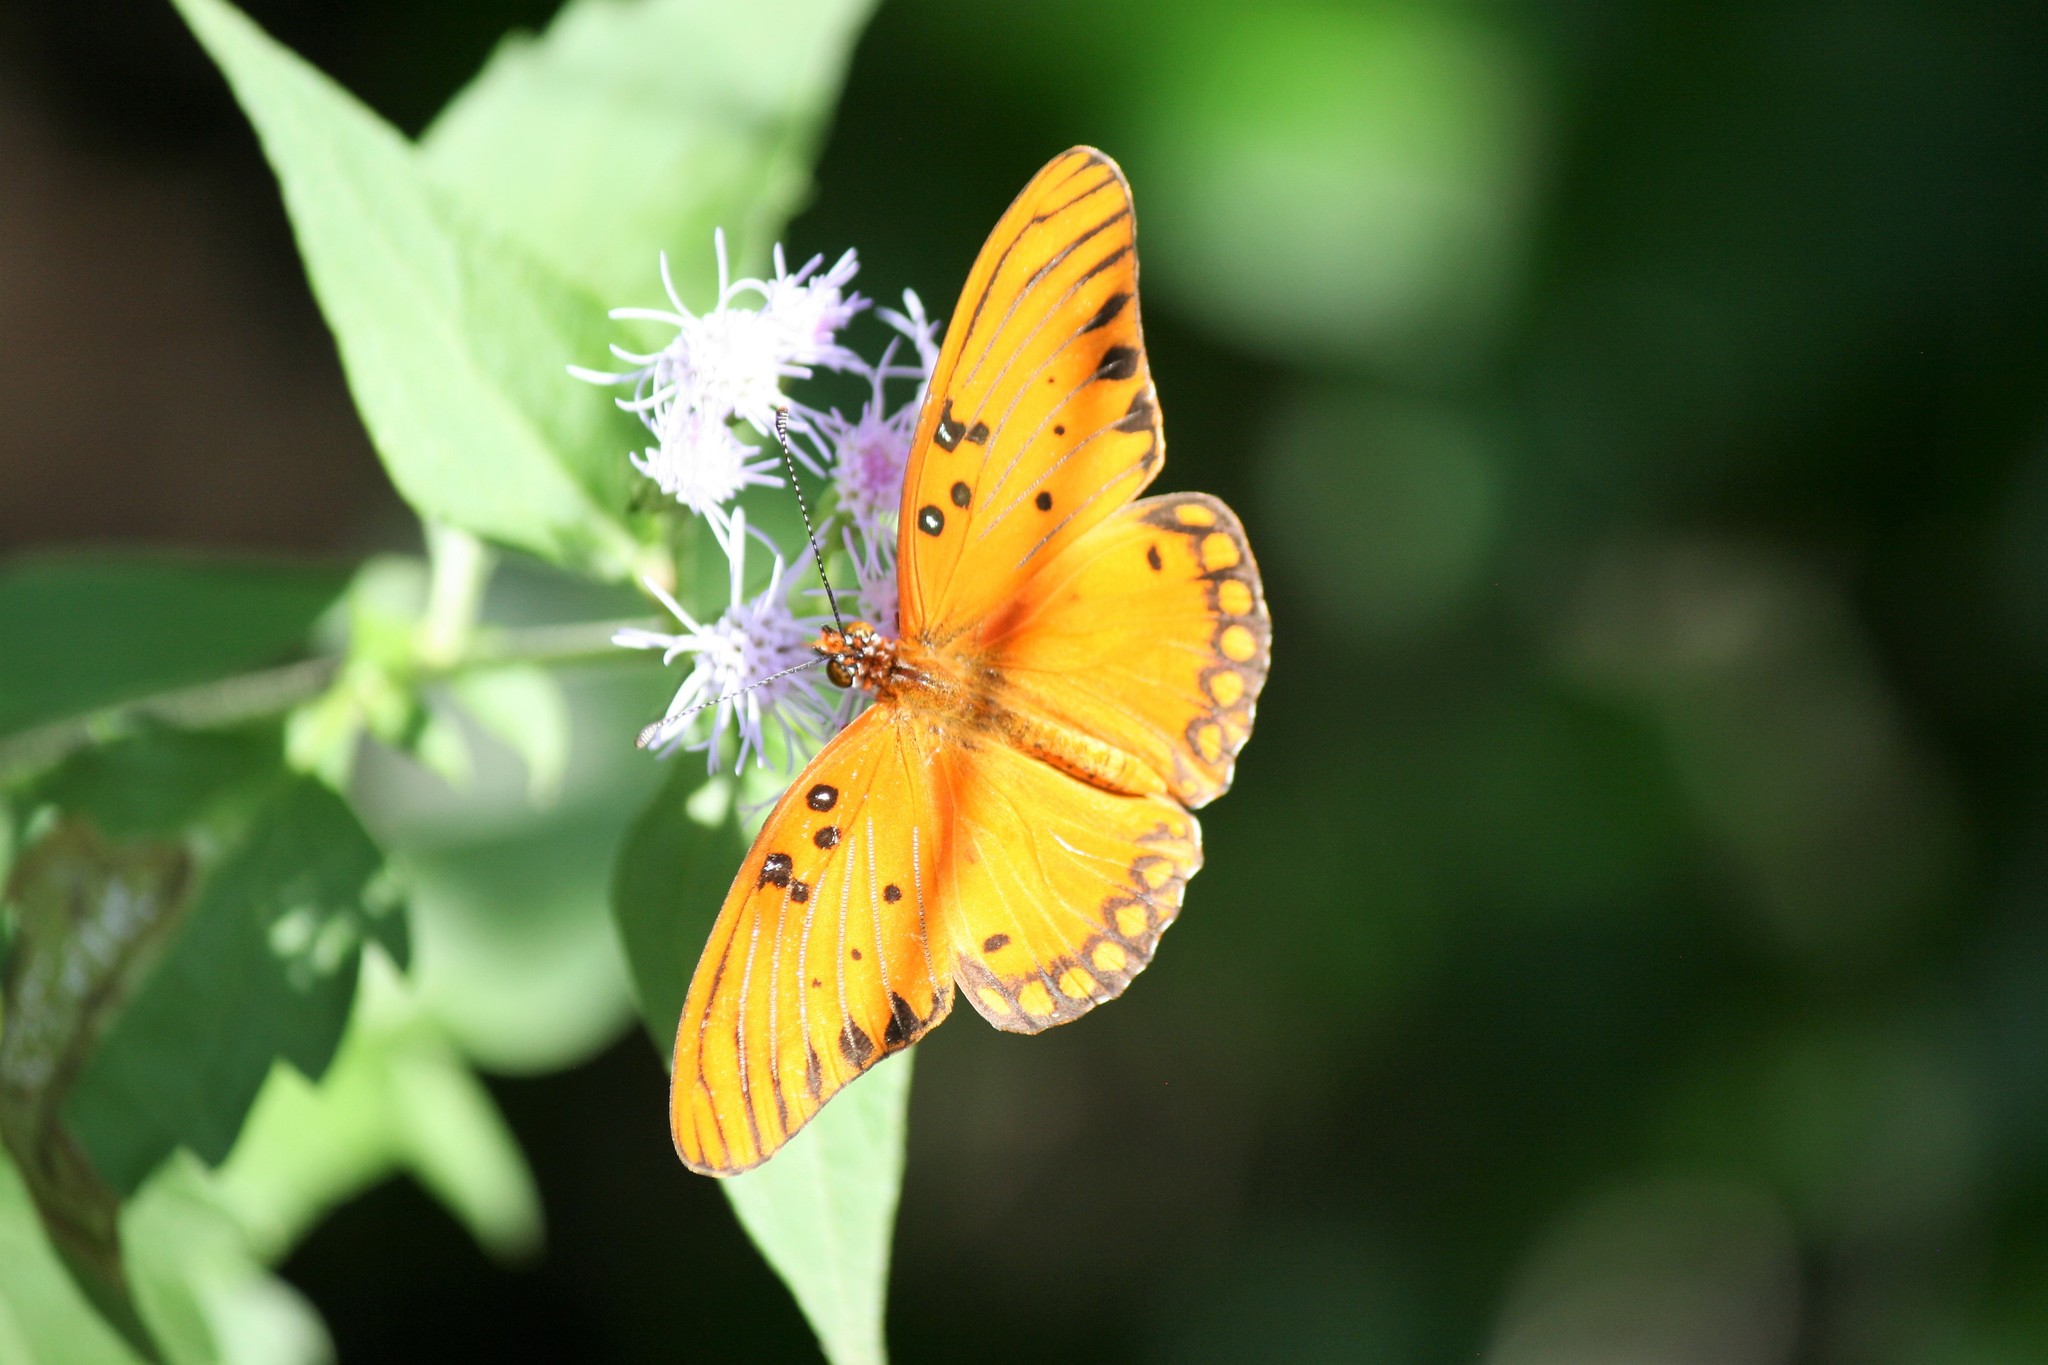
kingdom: Animalia
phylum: Arthropoda
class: Insecta
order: Lepidoptera
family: Nymphalidae
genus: Dione
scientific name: Dione vanillae
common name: Gulf fritillary
